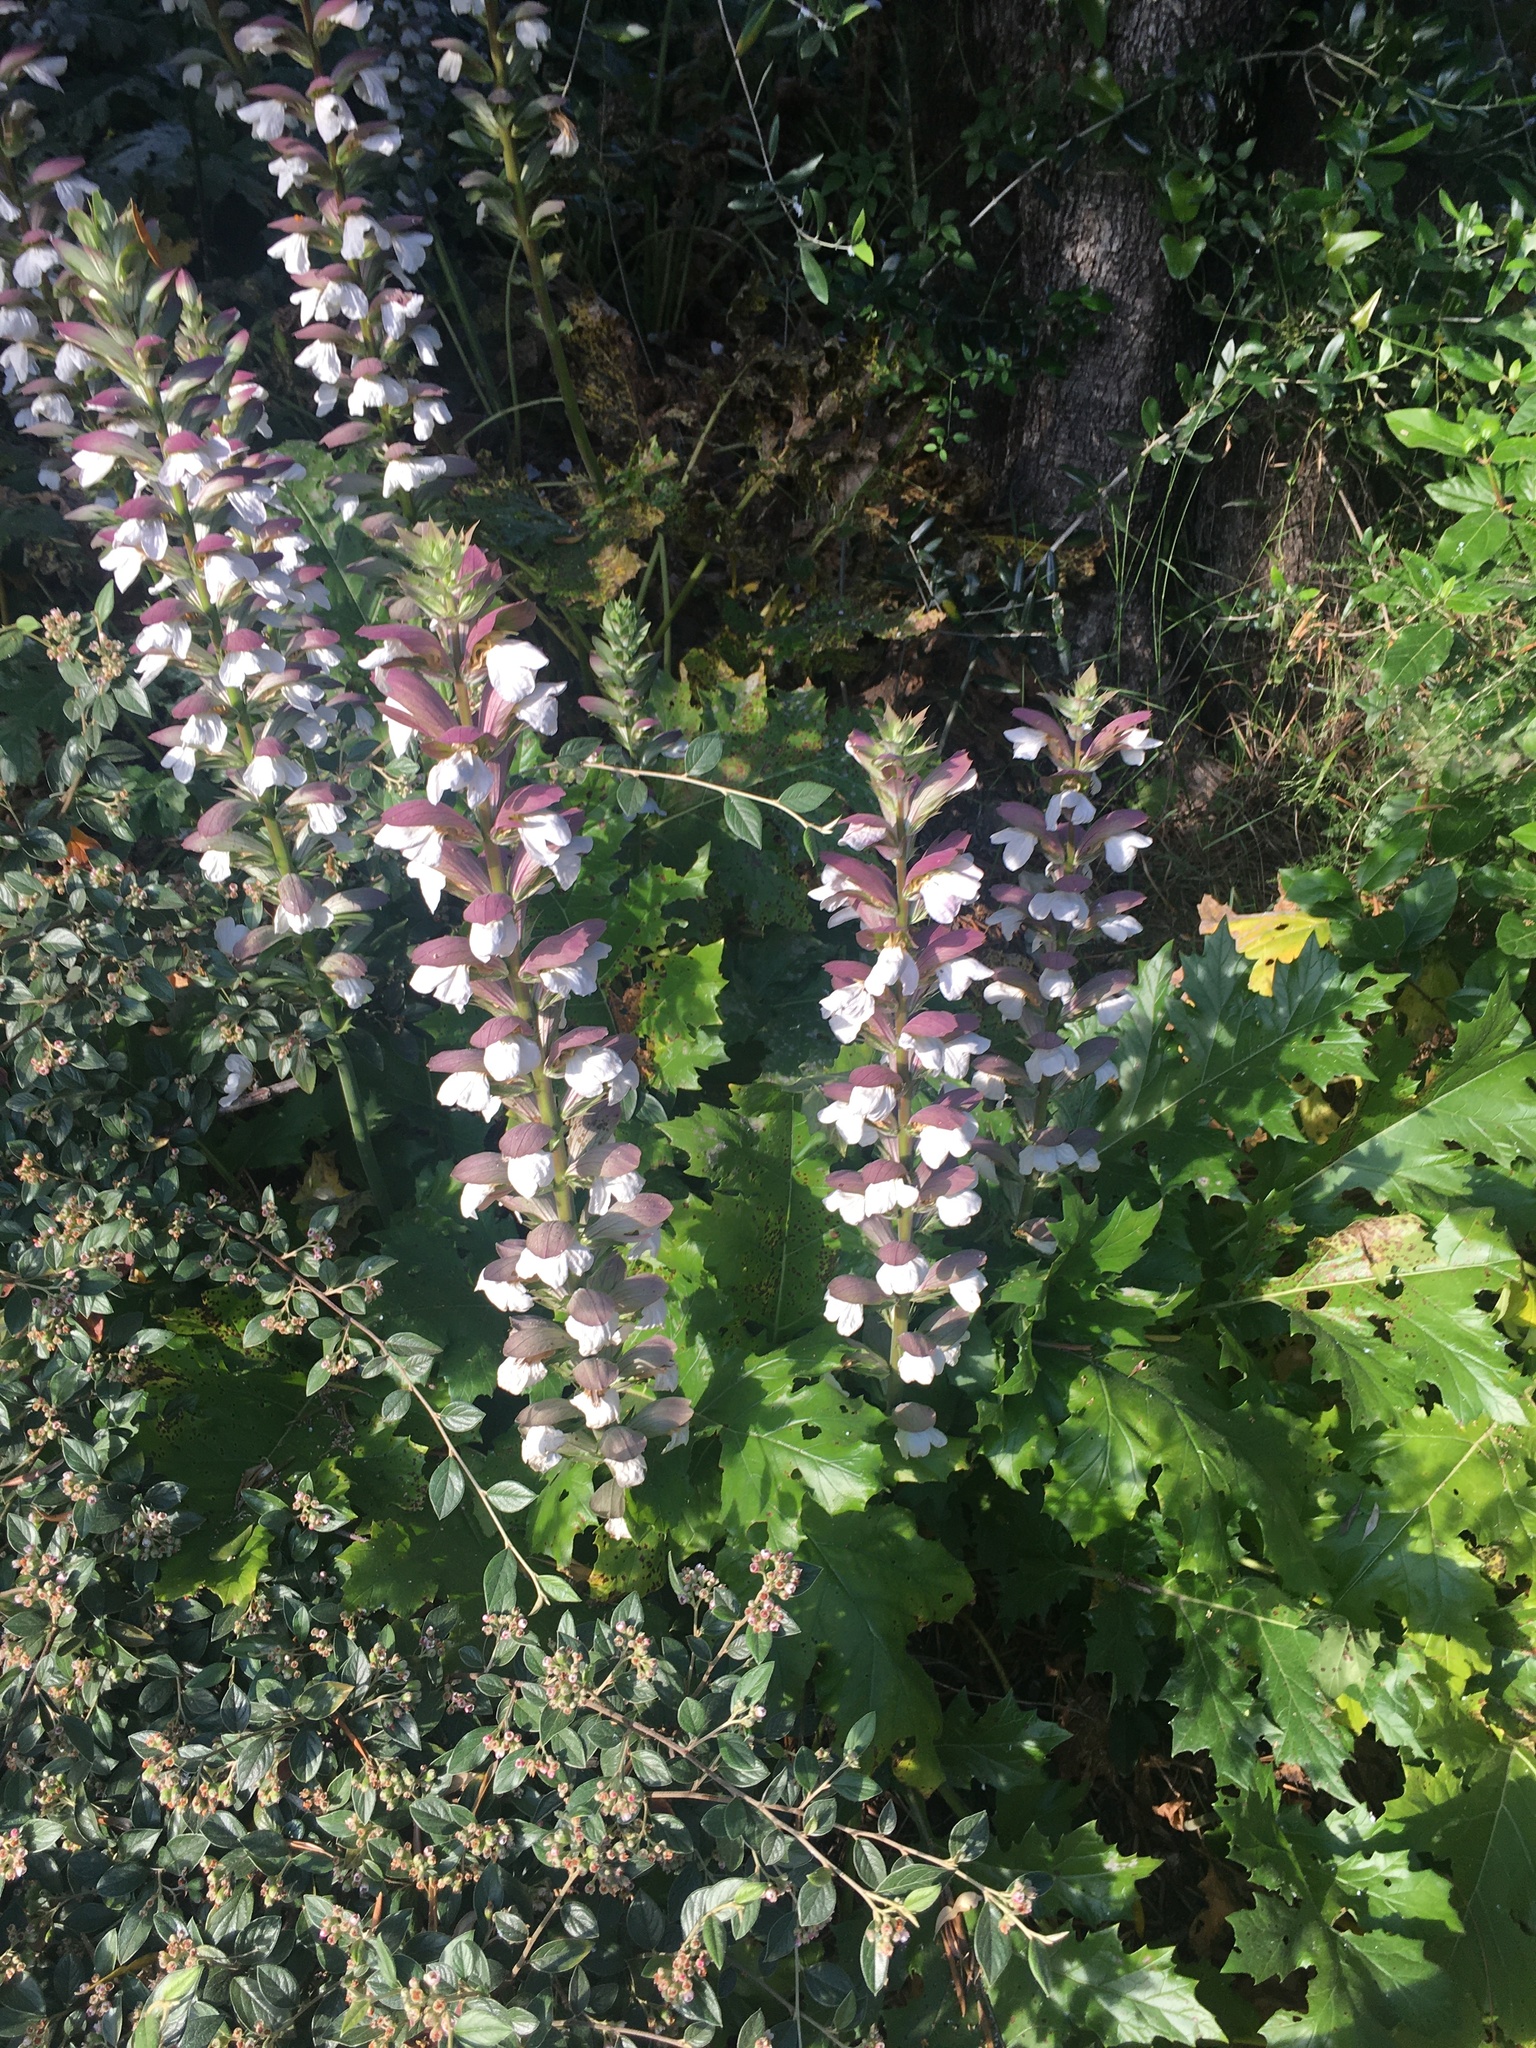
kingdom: Plantae
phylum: Tracheophyta
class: Magnoliopsida
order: Lamiales
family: Acanthaceae
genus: Acanthus
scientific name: Acanthus mollis
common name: Bear's-breech
